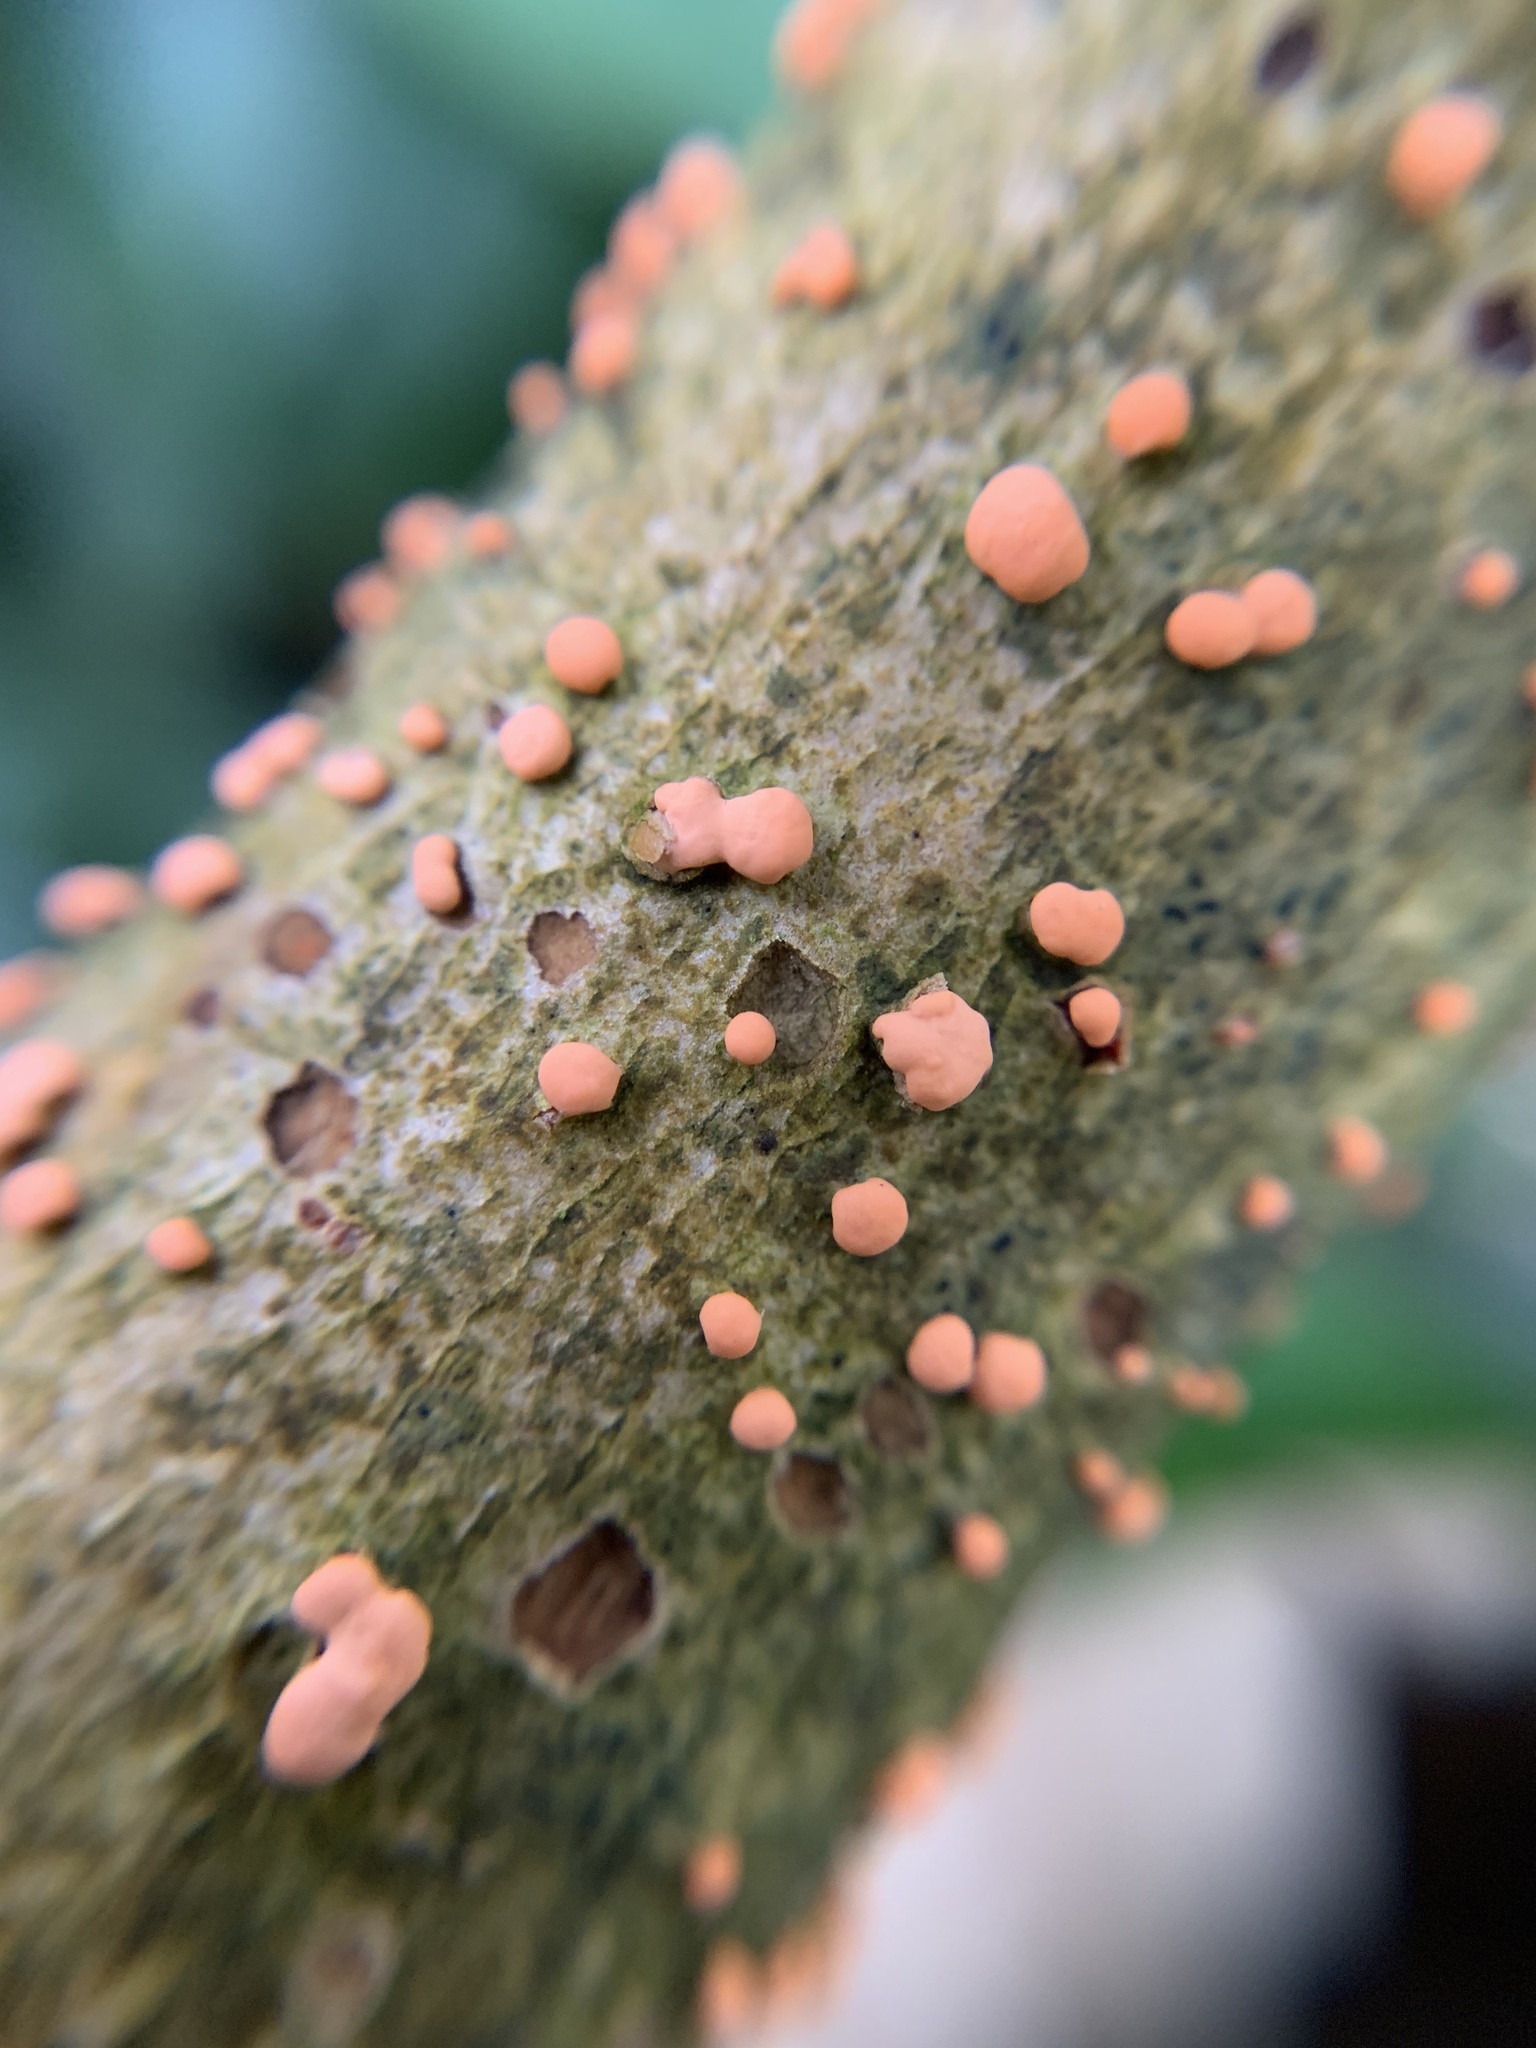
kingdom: Fungi
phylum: Ascomycota
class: Sordariomycetes
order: Hypocreales
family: Nectriaceae
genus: Nectria
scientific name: Nectria cinnabarina
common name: Coral spot
